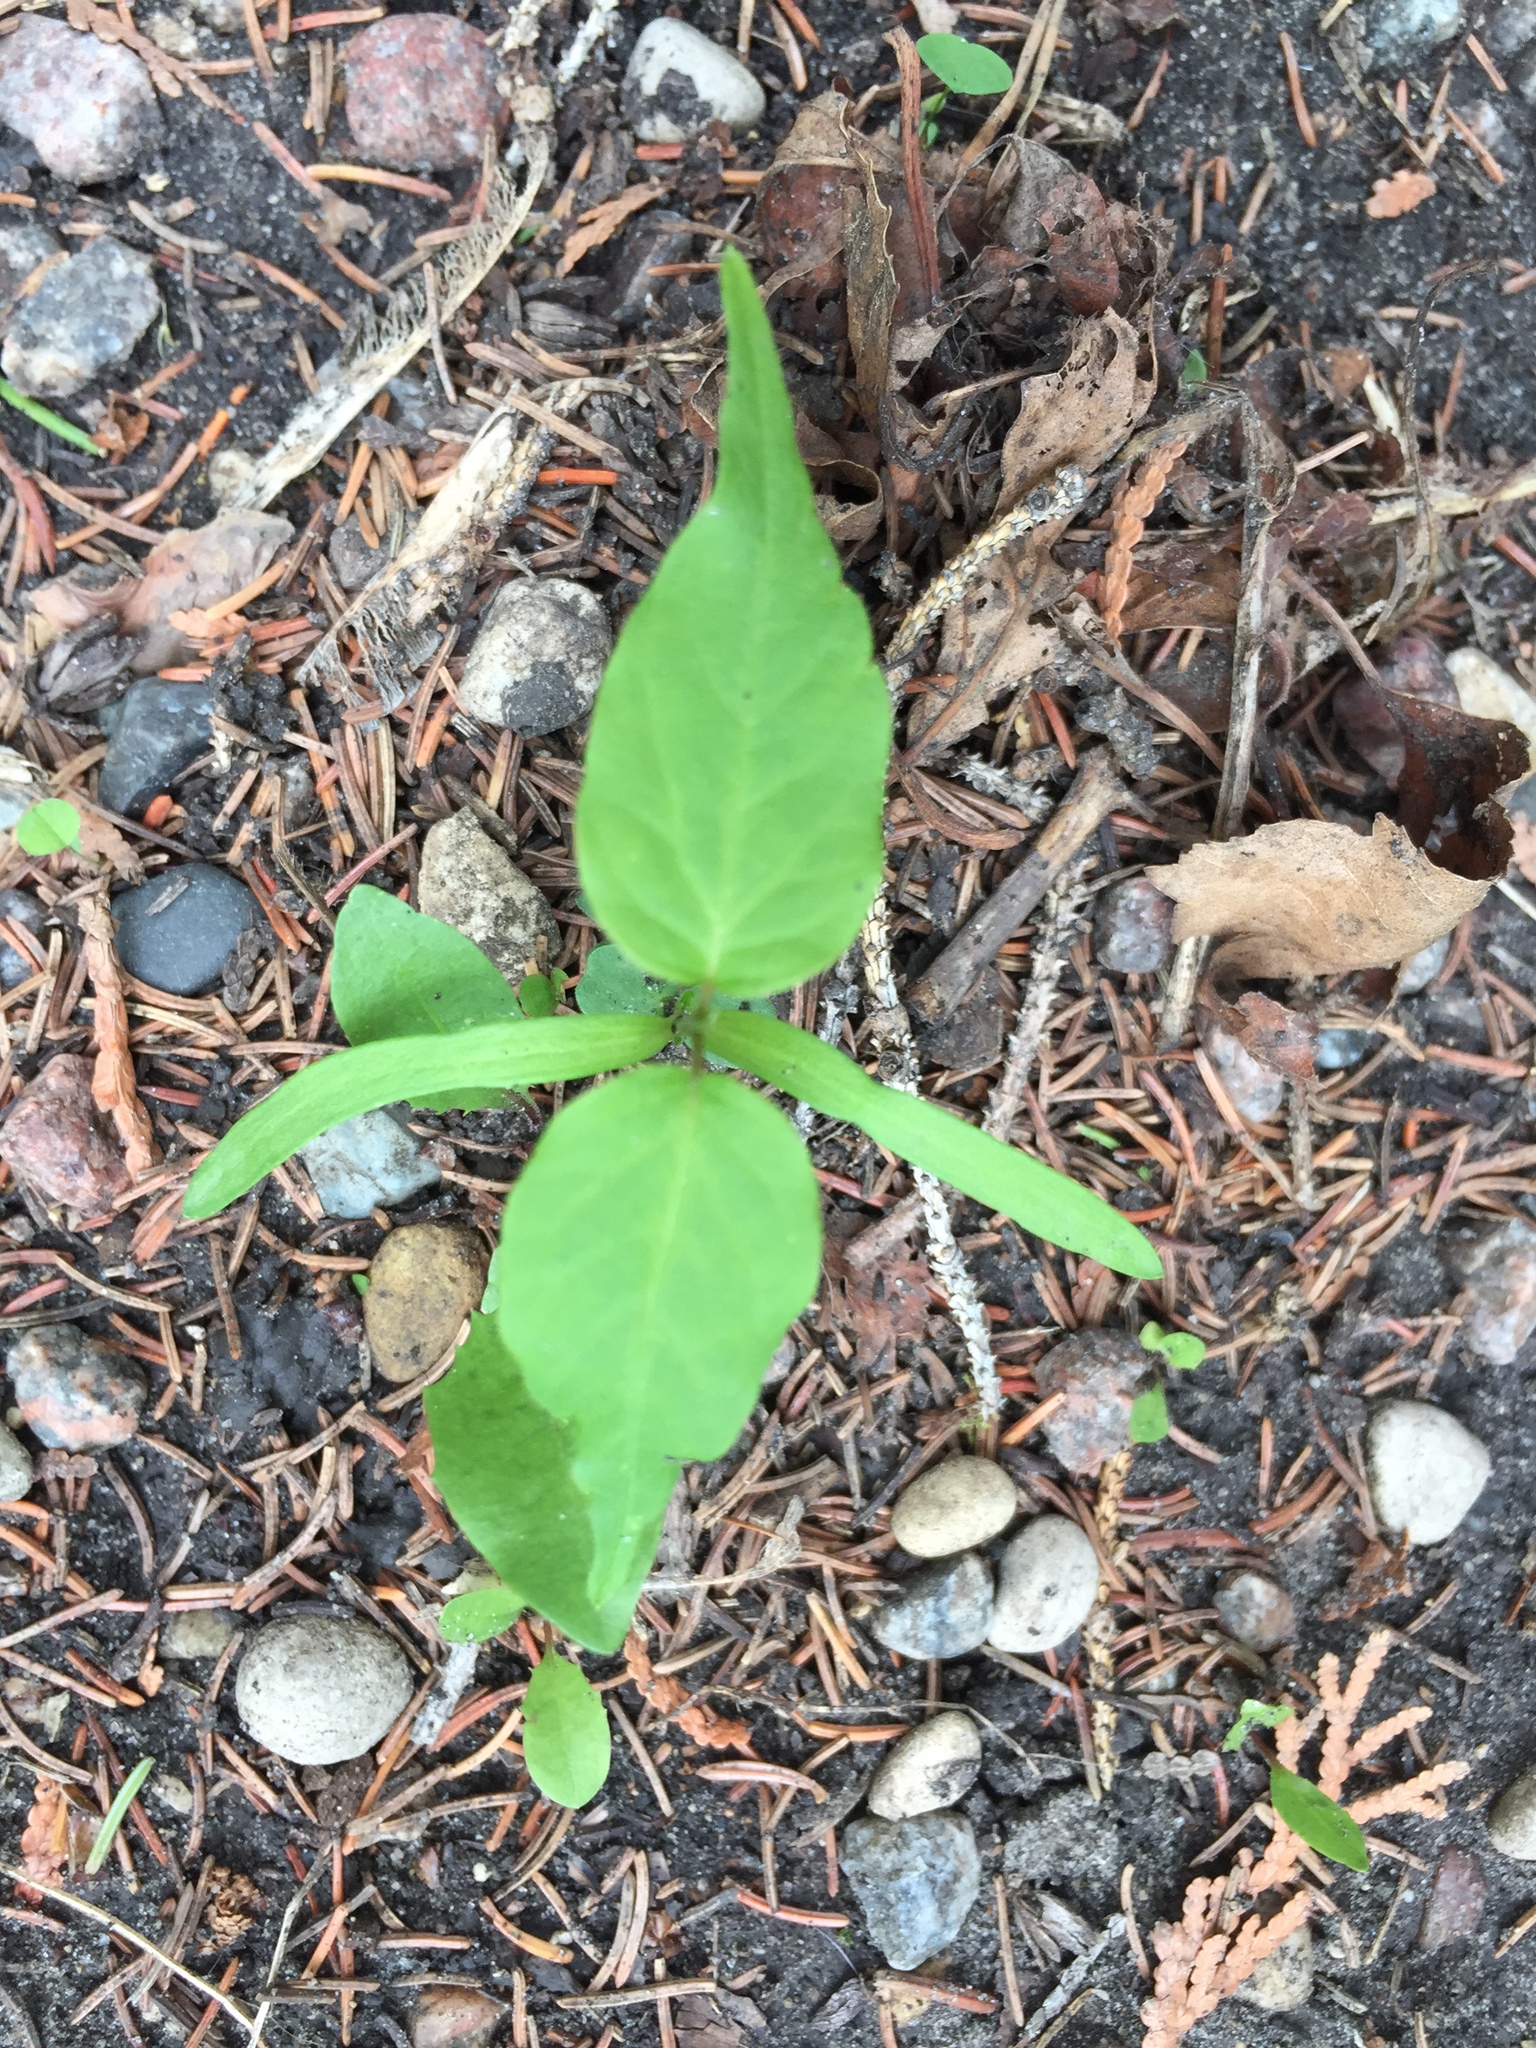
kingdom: Plantae
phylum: Tracheophyta
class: Magnoliopsida
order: Sapindales
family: Sapindaceae
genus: Acer
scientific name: Acer negundo
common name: Ashleaf maple
